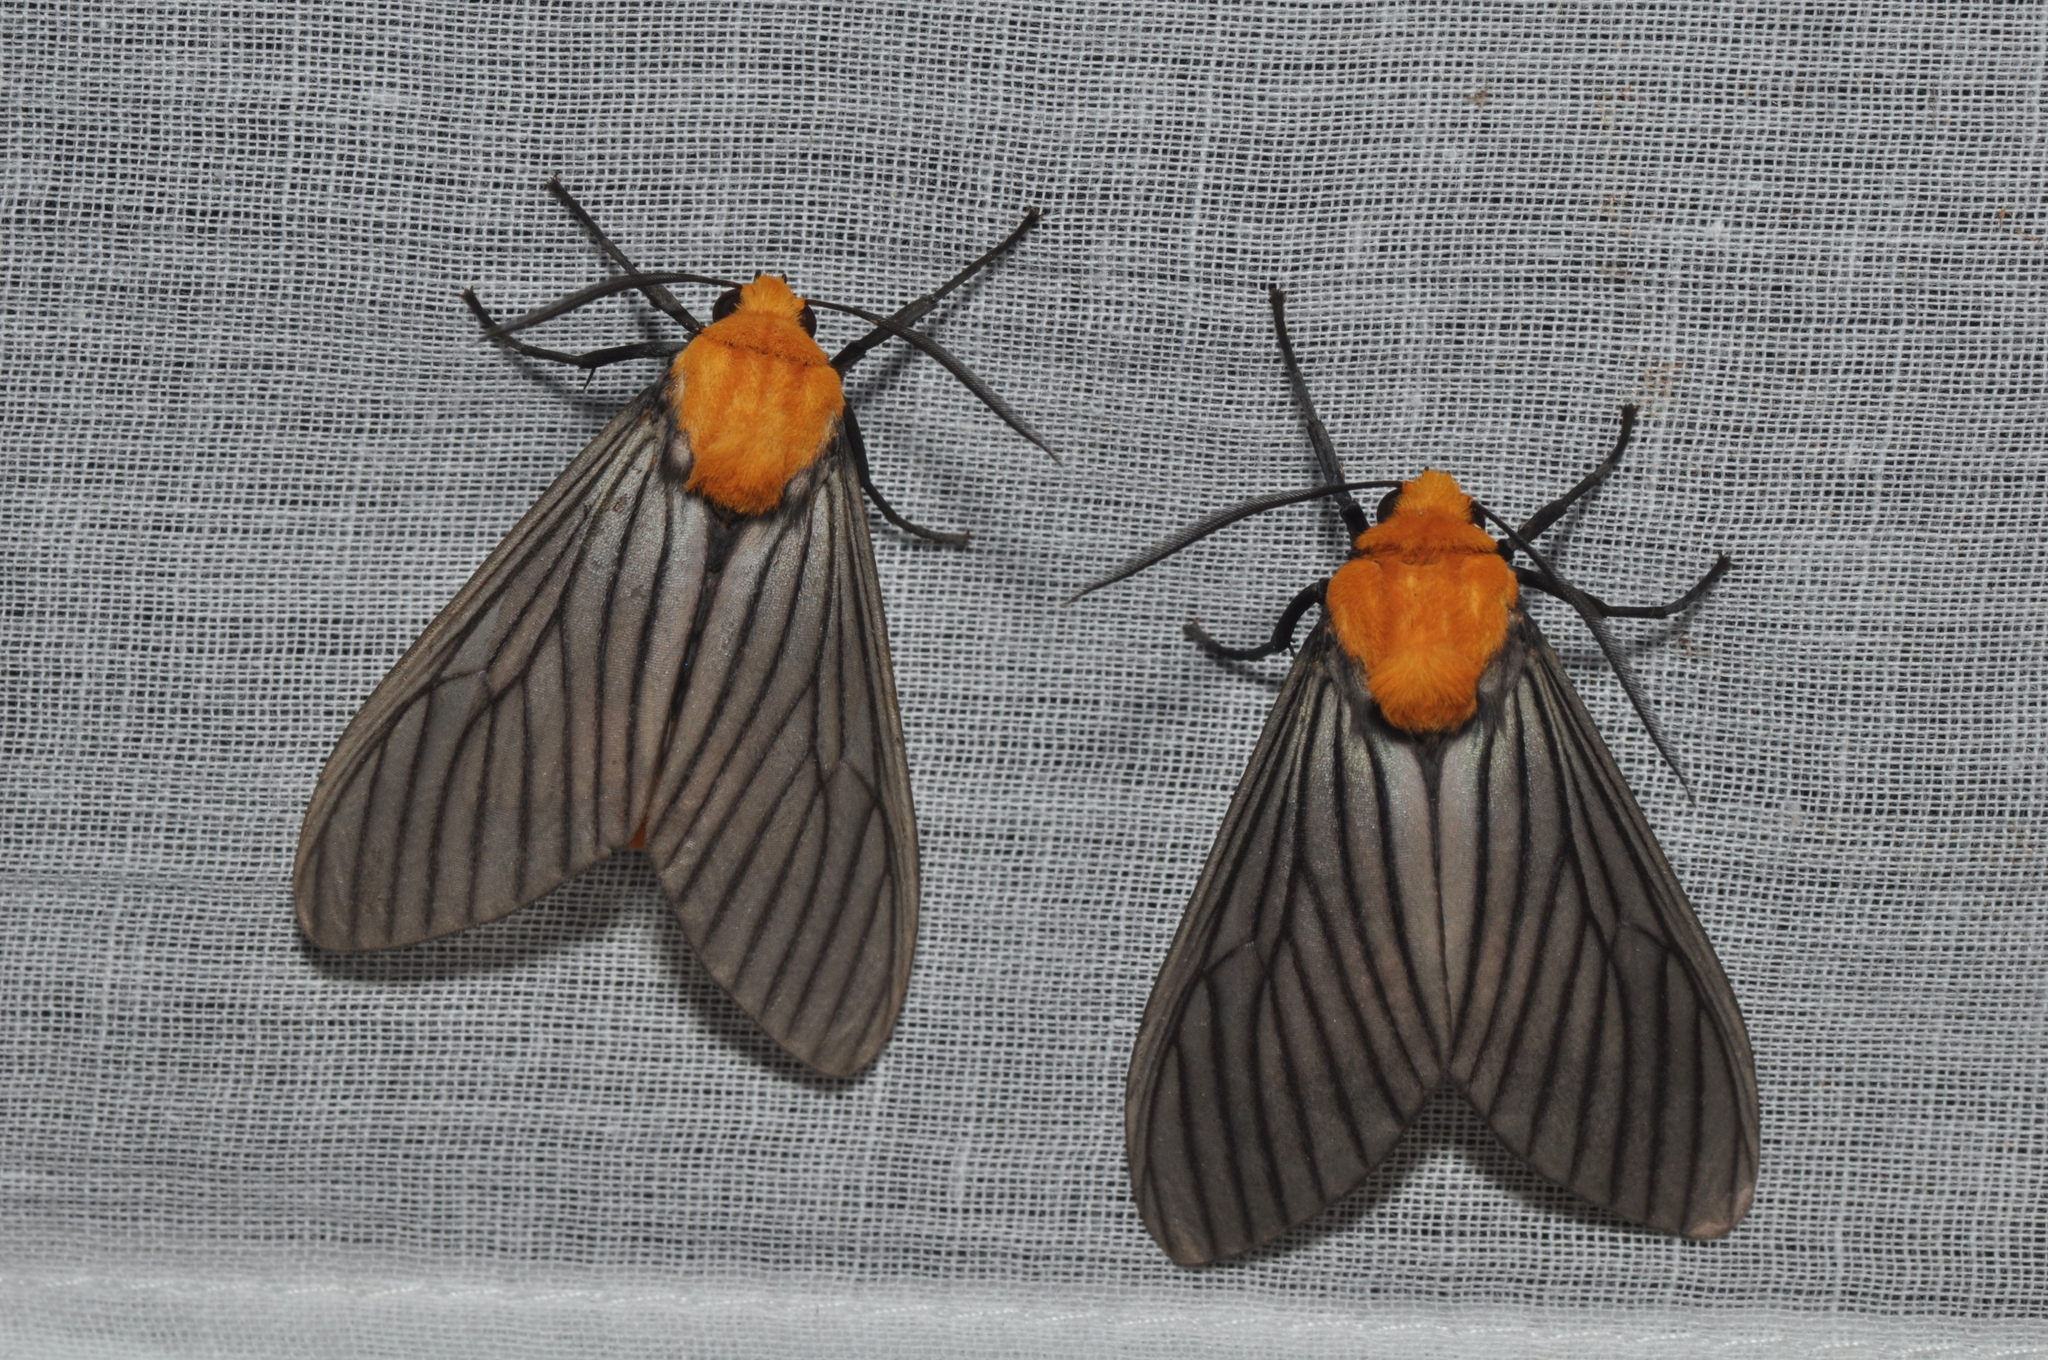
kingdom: Animalia
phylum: Arthropoda
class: Insecta
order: Lepidoptera
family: Erebidae
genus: Pseudischnocampa
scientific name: Pseudischnocampa humosa
